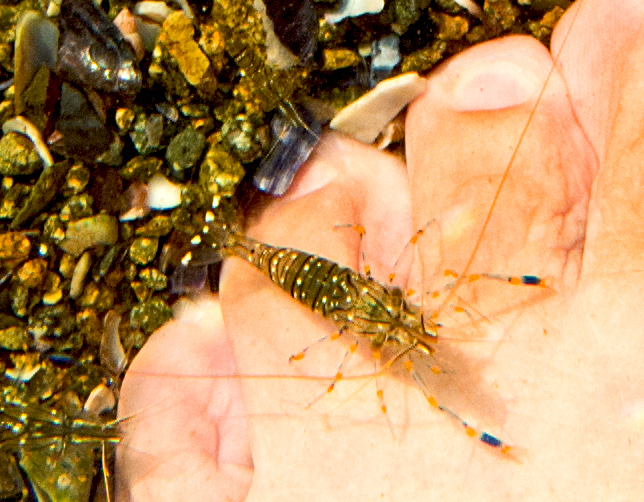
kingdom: Animalia
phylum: Arthropoda
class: Malacostraca
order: Decapoda
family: Palaemonidae
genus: Palaemon
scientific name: Palaemon elegans
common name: Grass prawm
